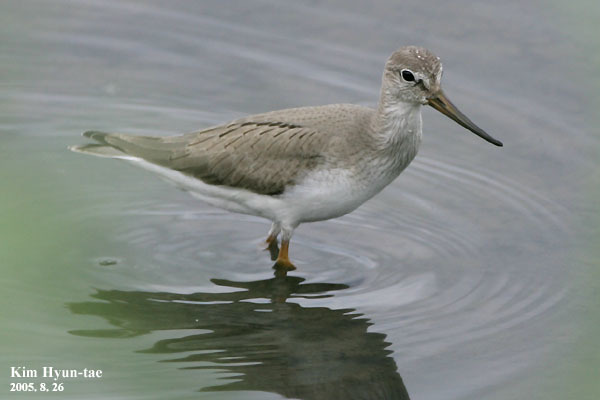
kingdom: Animalia
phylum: Chordata
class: Aves
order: Charadriiformes
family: Scolopacidae
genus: Xenus
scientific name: Xenus cinereus
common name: Terek sandpiper
